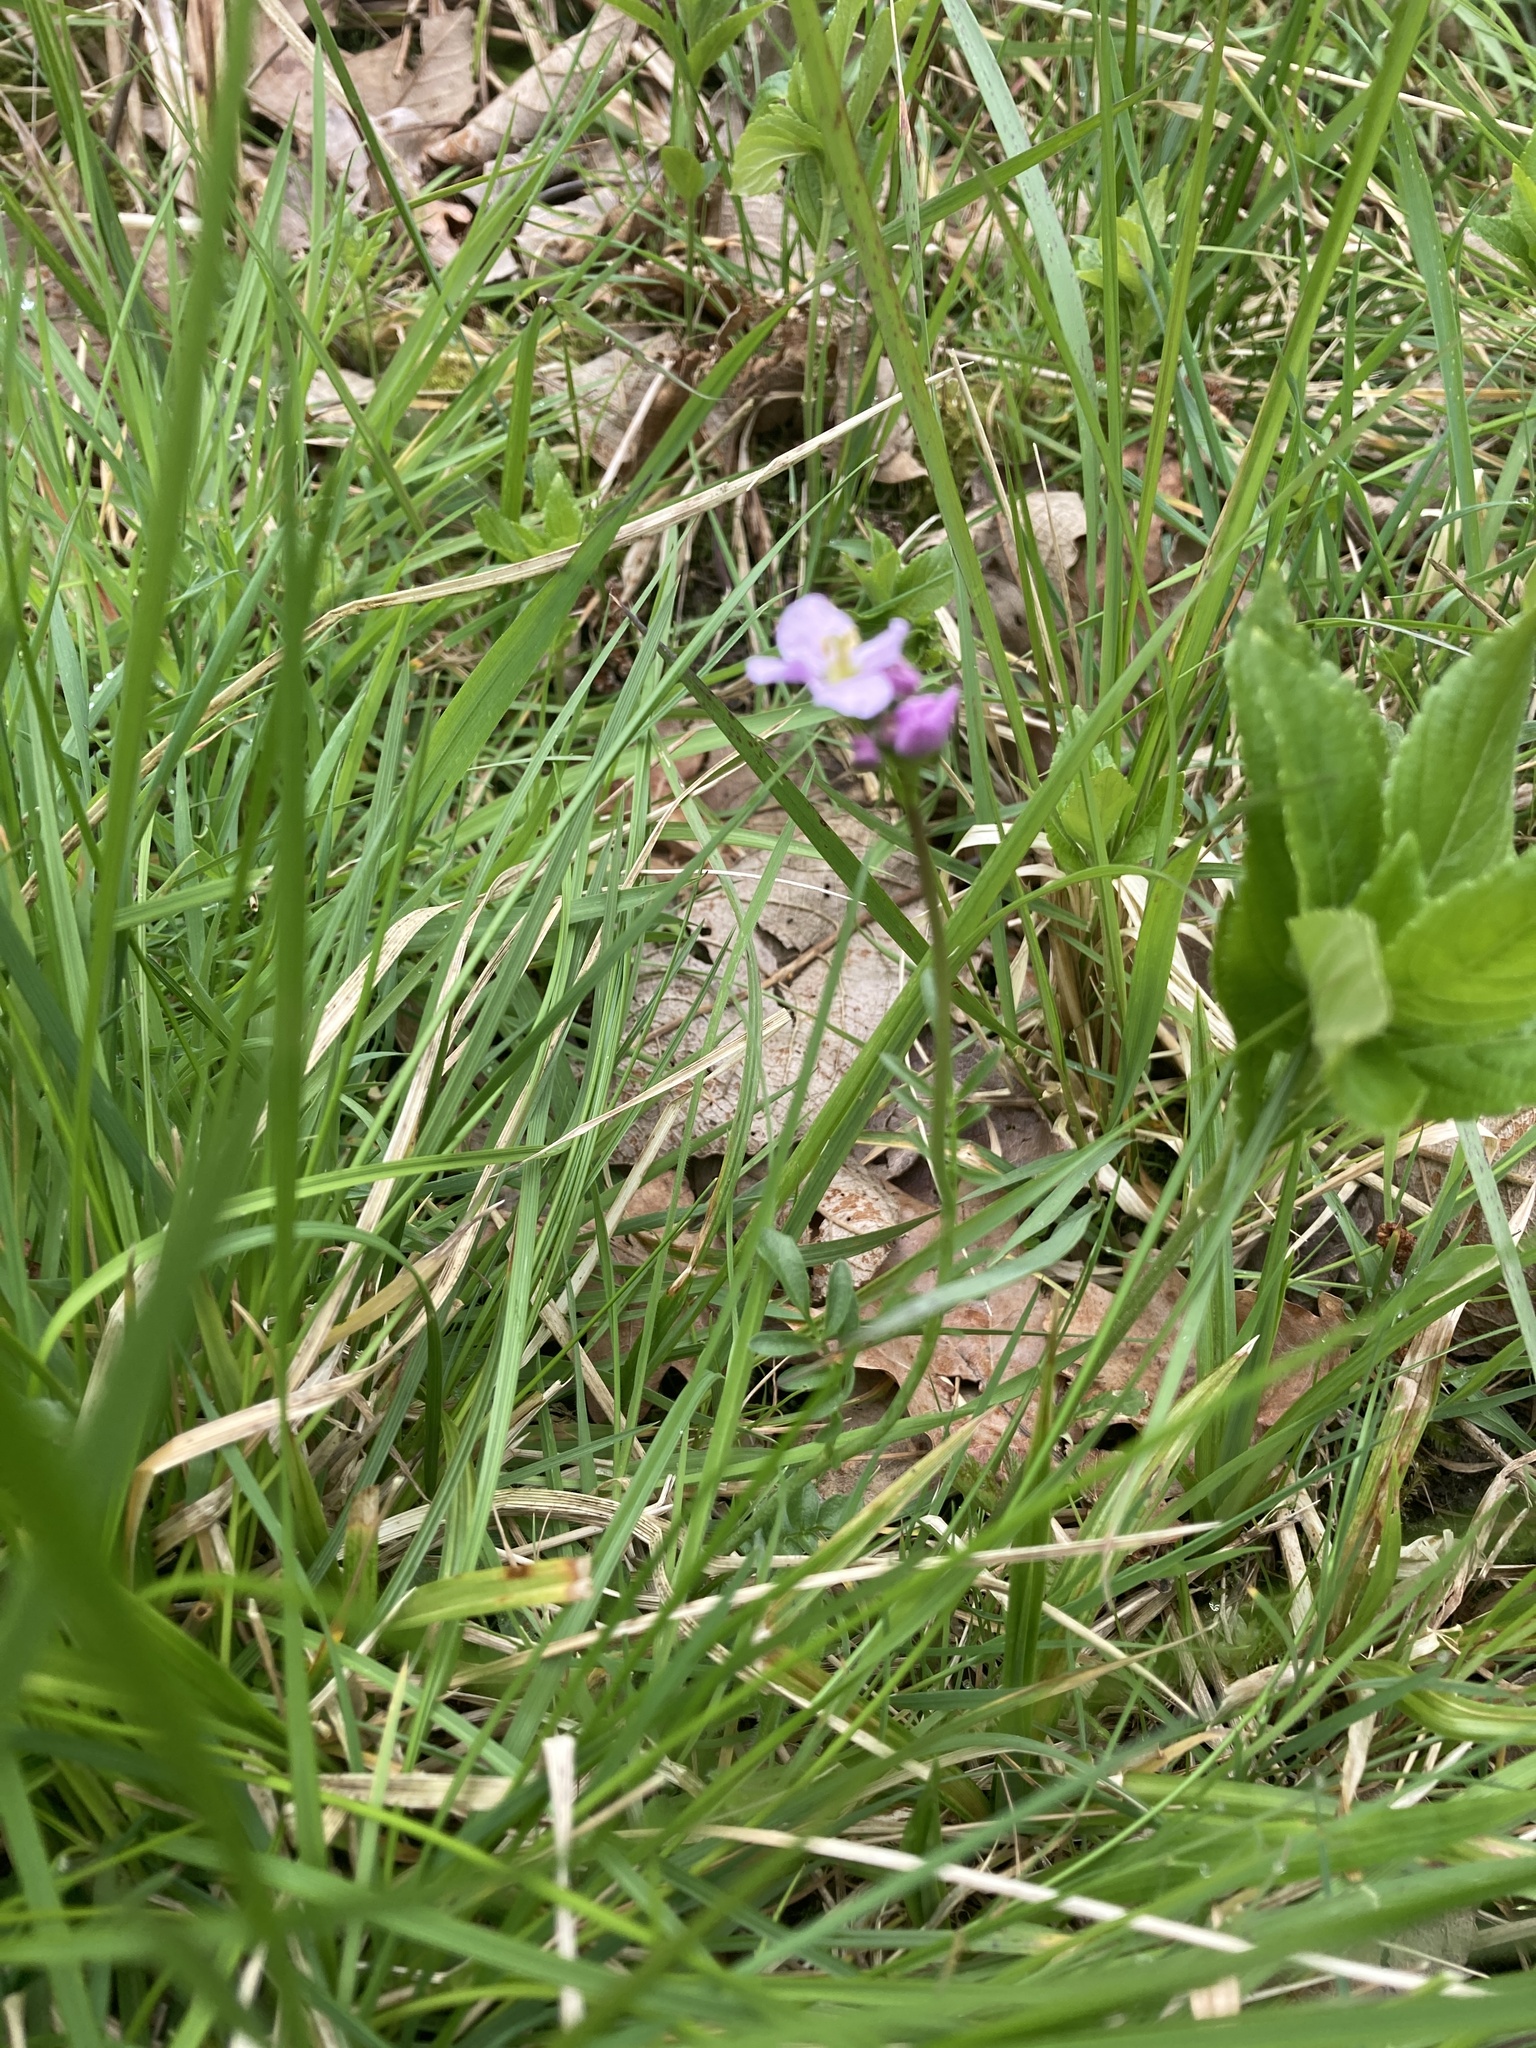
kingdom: Plantae
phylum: Tracheophyta
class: Magnoliopsida
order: Brassicales
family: Brassicaceae
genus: Cardamine
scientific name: Cardamine pratensis
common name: Cuckoo flower
